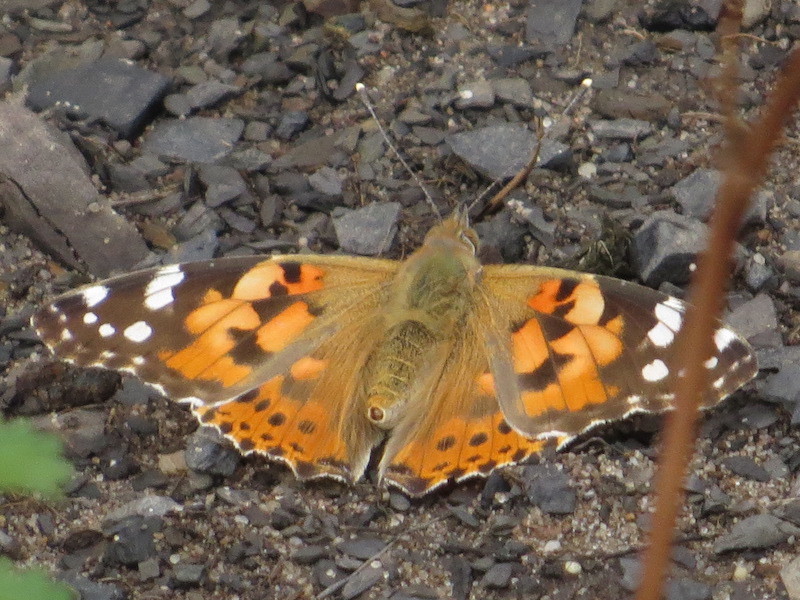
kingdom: Animalia
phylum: Arthropoda
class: Insecta
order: Lepidoptera
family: Nymphalidae
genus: Vanessa
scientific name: Vanessa cardui
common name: Painted lady
